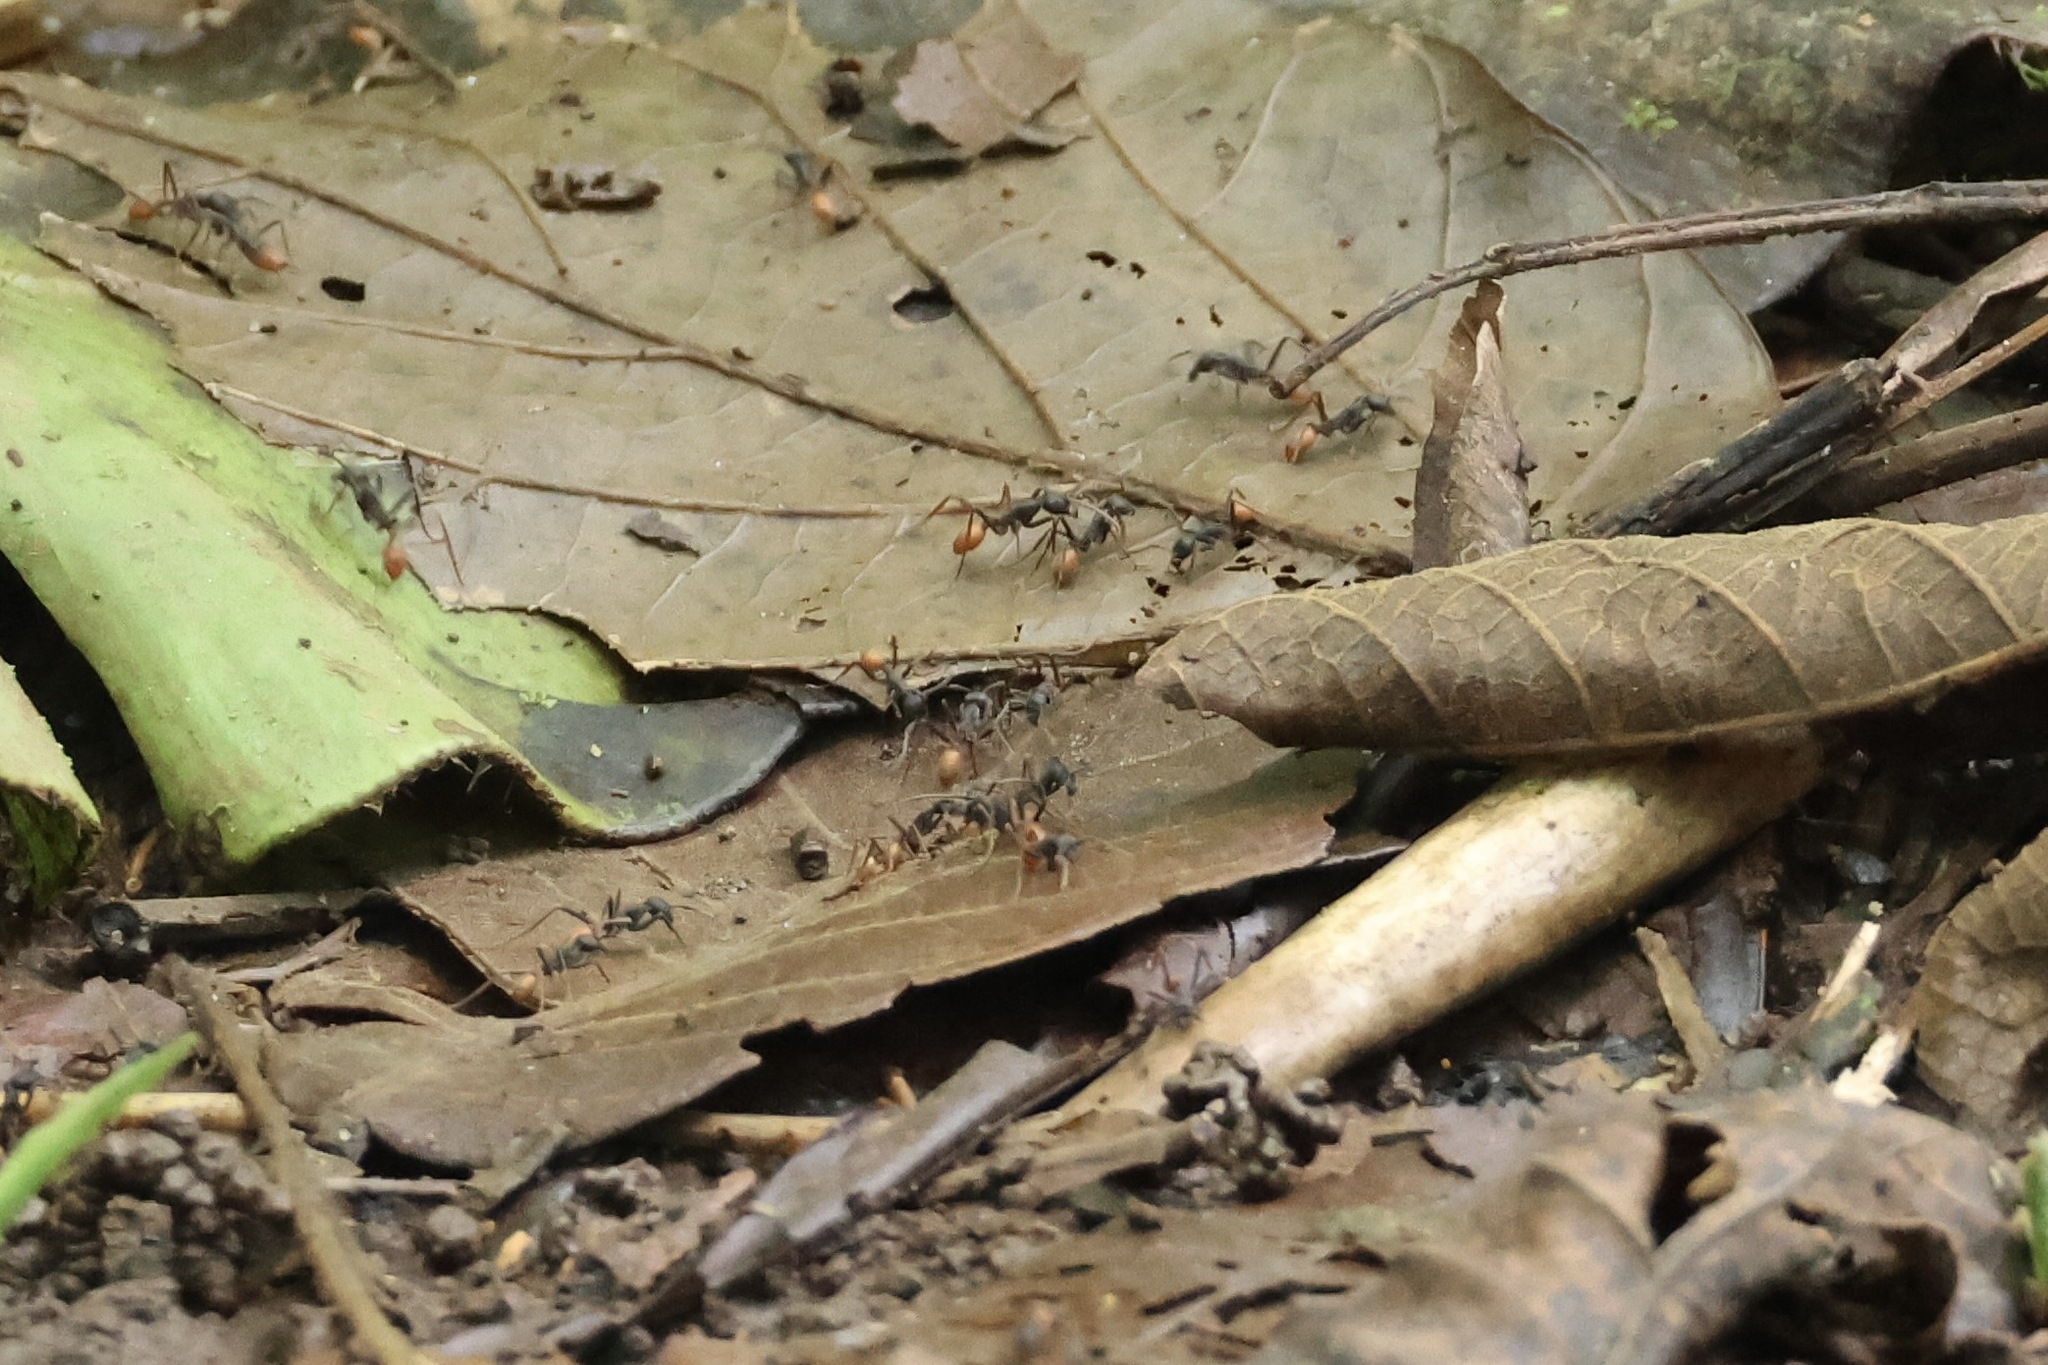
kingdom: Animalia
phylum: Arthropoda
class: Insecta
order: Hymenoptera
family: Formicidae
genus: Eciton
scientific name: Eciton burchellii
